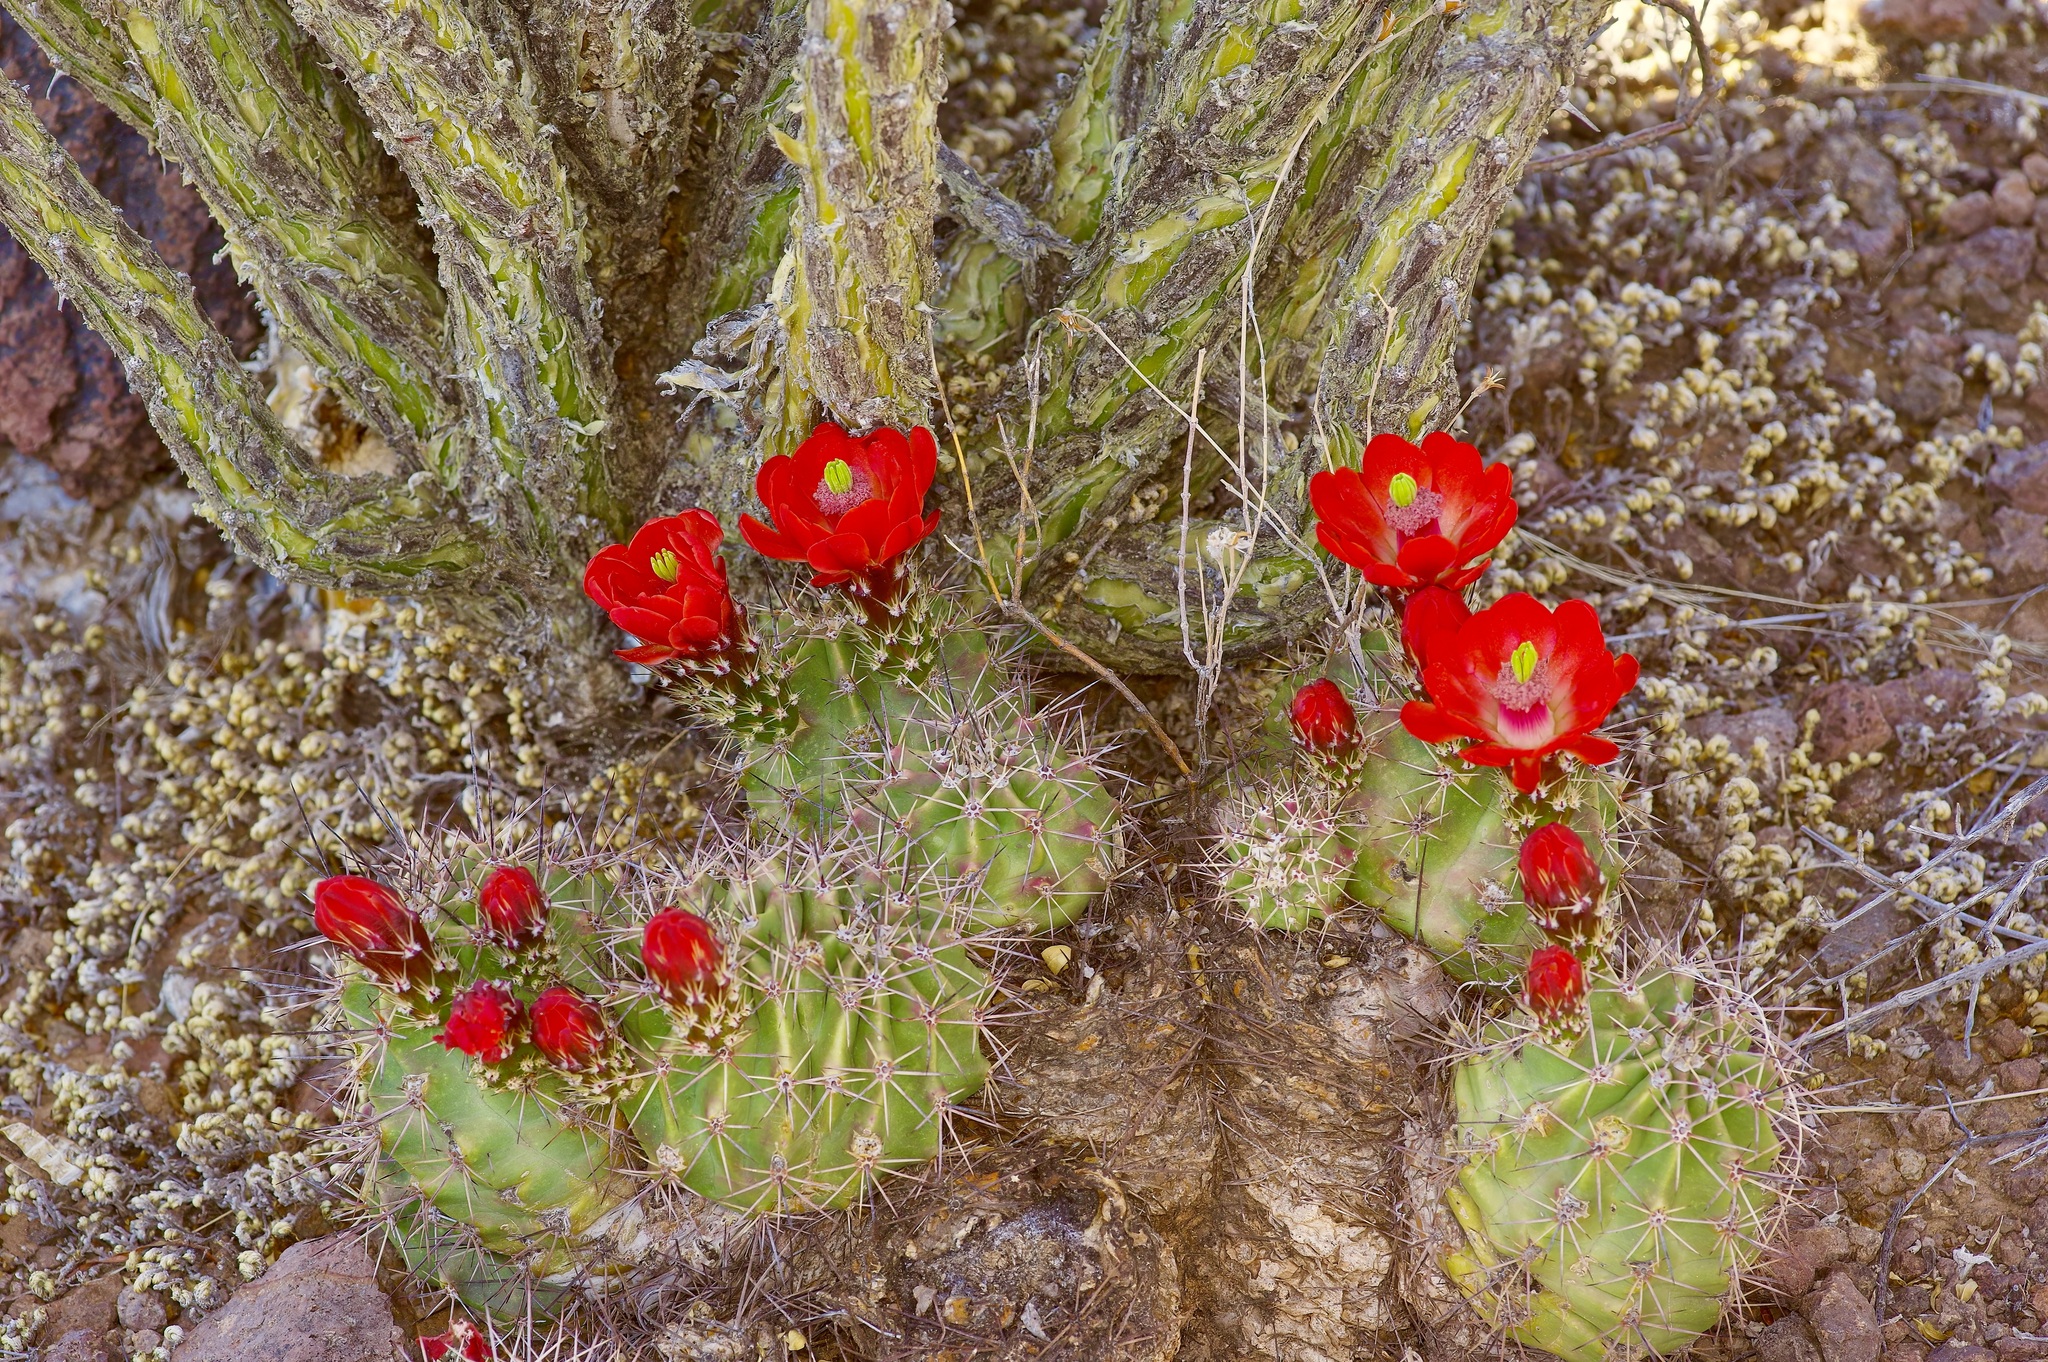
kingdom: Plantae
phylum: Tracheophyta
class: Magnoliopsida
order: Caryophyllales
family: Cactaceae
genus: Echinocereus
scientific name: Echinocereus coccineus
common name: Scarlet hedgehog cactus
